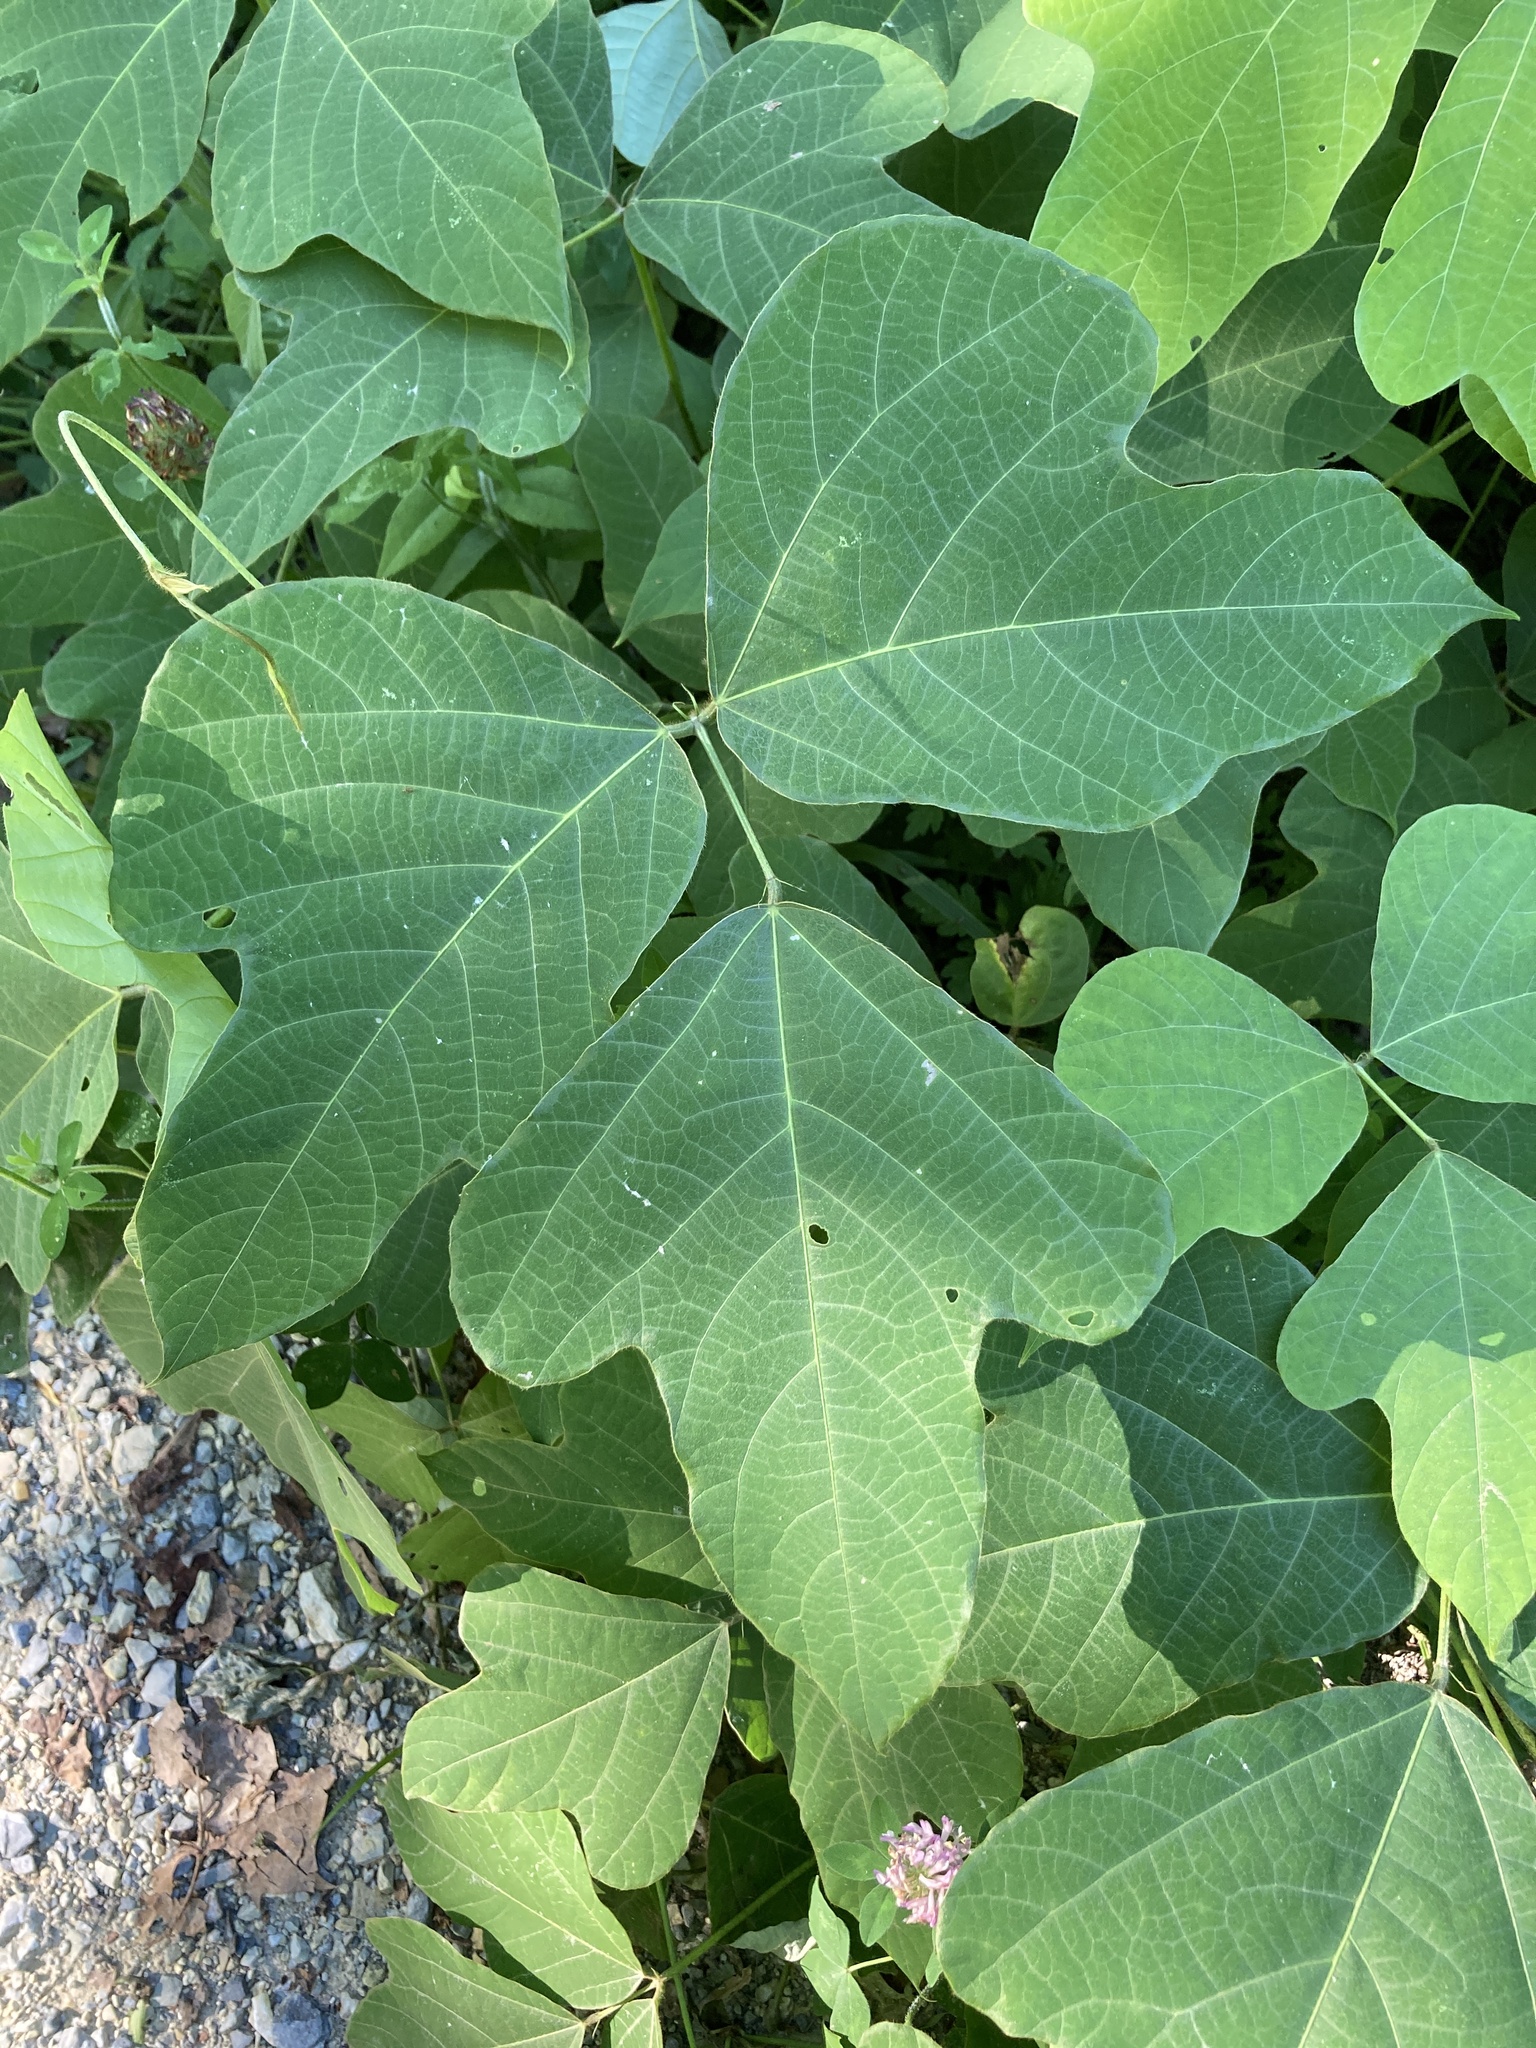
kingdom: Plantae
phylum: Tracheophyta
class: Magnoliopsida
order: Fabales
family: Fabaceae
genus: Pueraria
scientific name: Pueraria montana
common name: Kudzu
